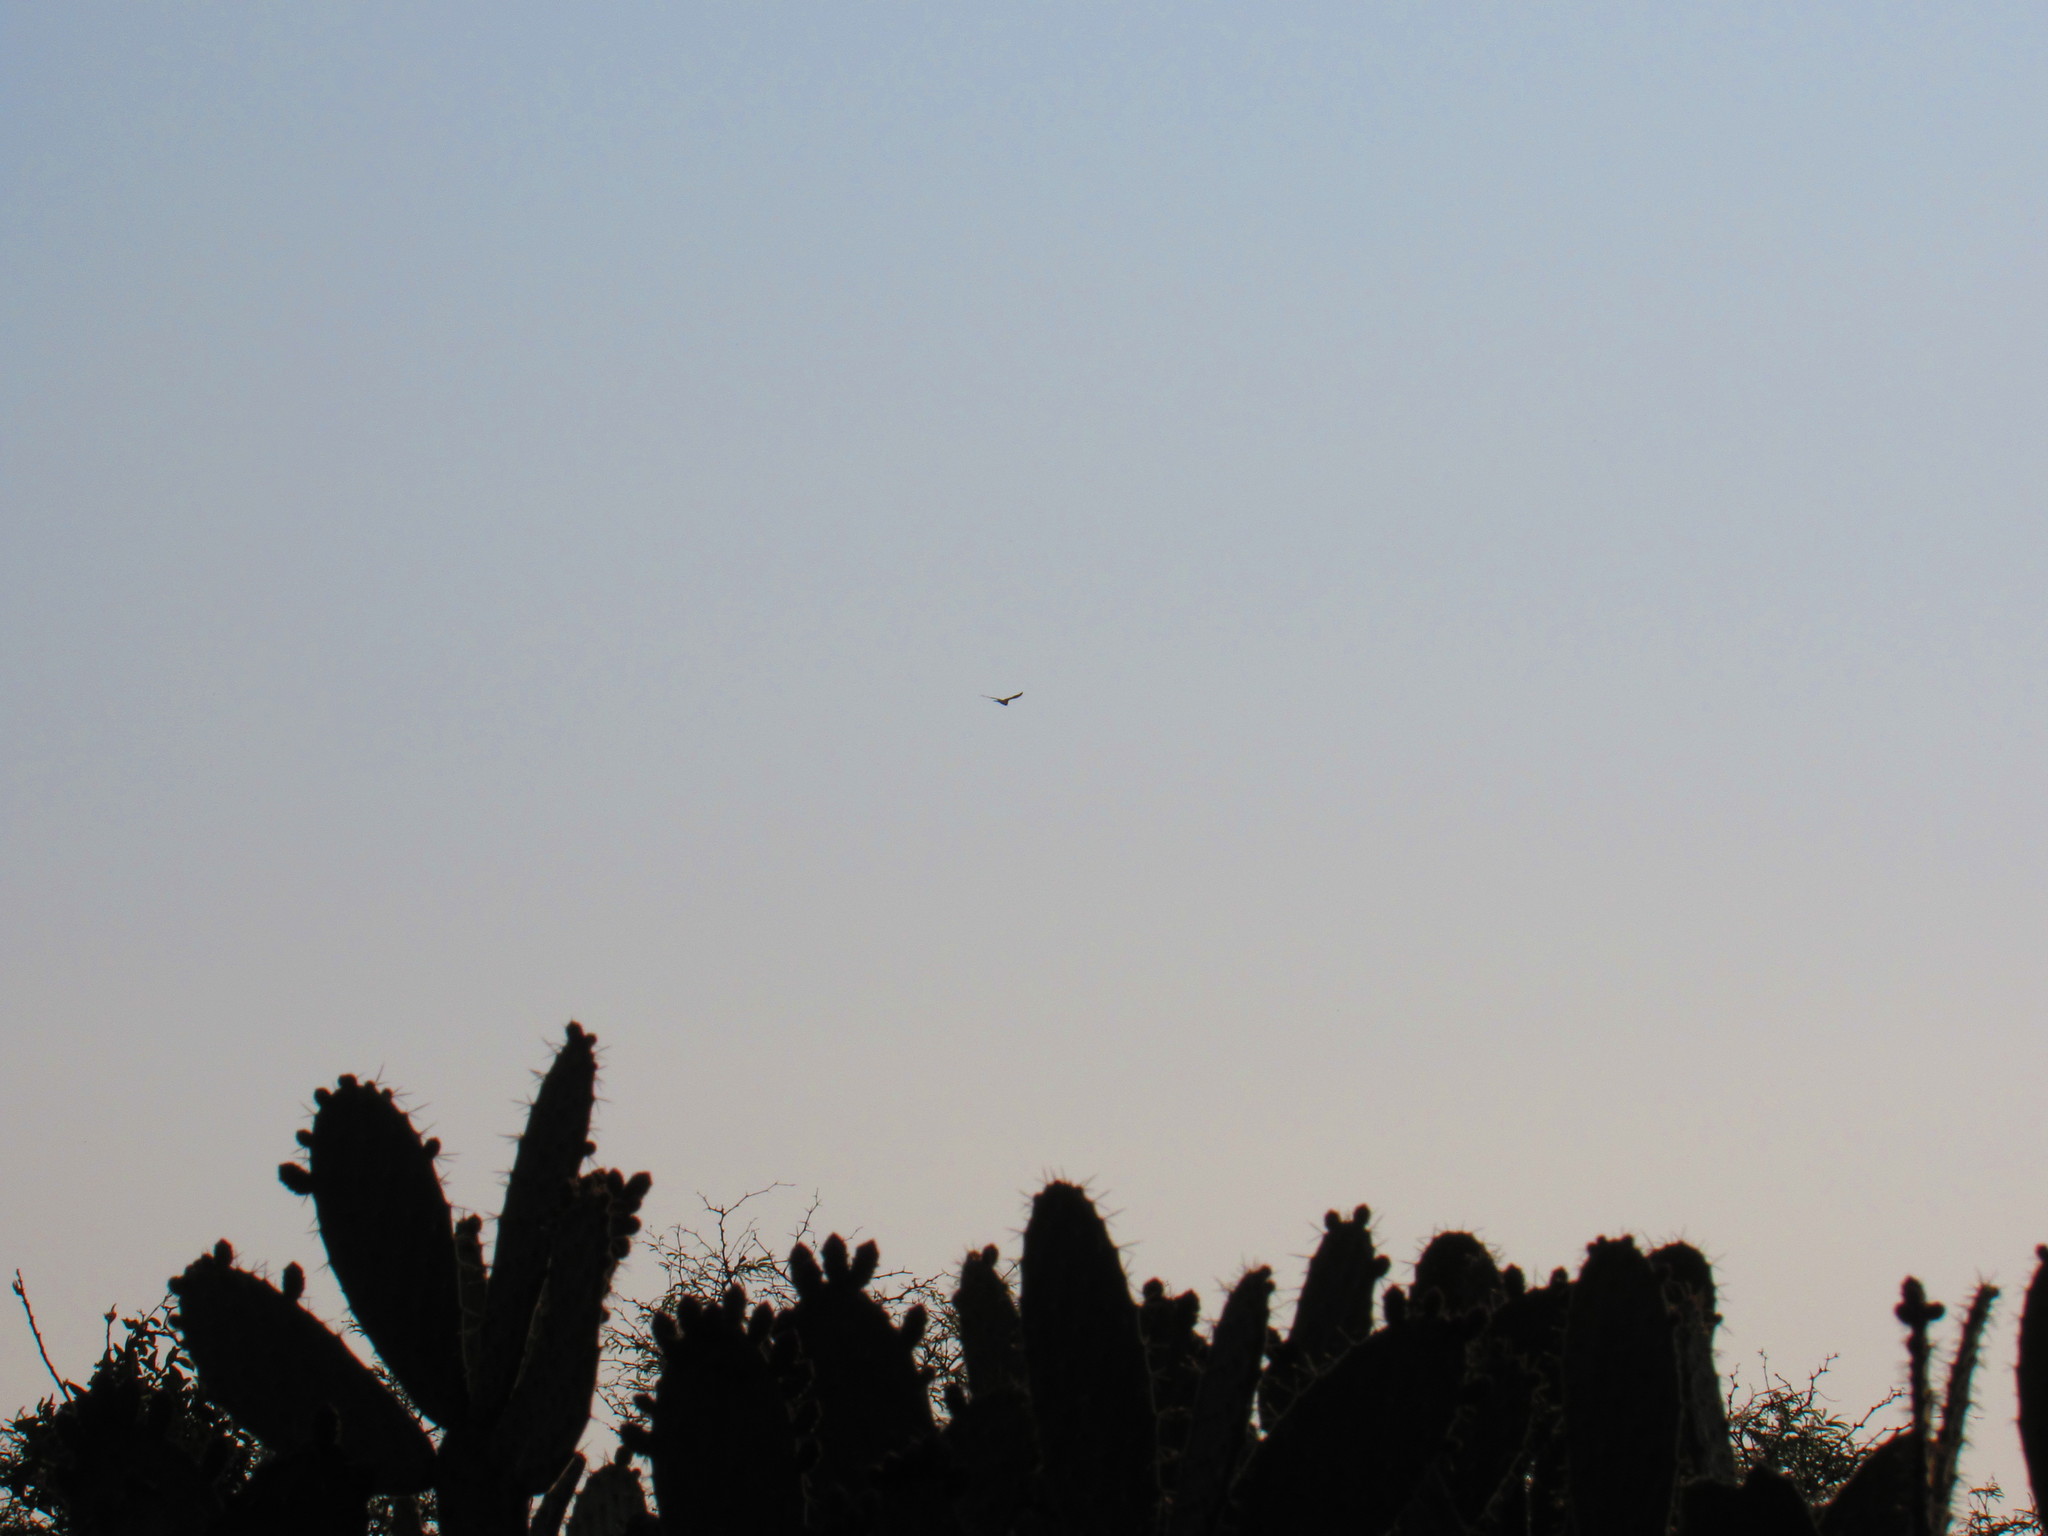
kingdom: Animalia
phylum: Chordata
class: Aves
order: Accipitriformes
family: Accipitridae
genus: Elanus
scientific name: Elanus leucurus
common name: White-tailed kite
